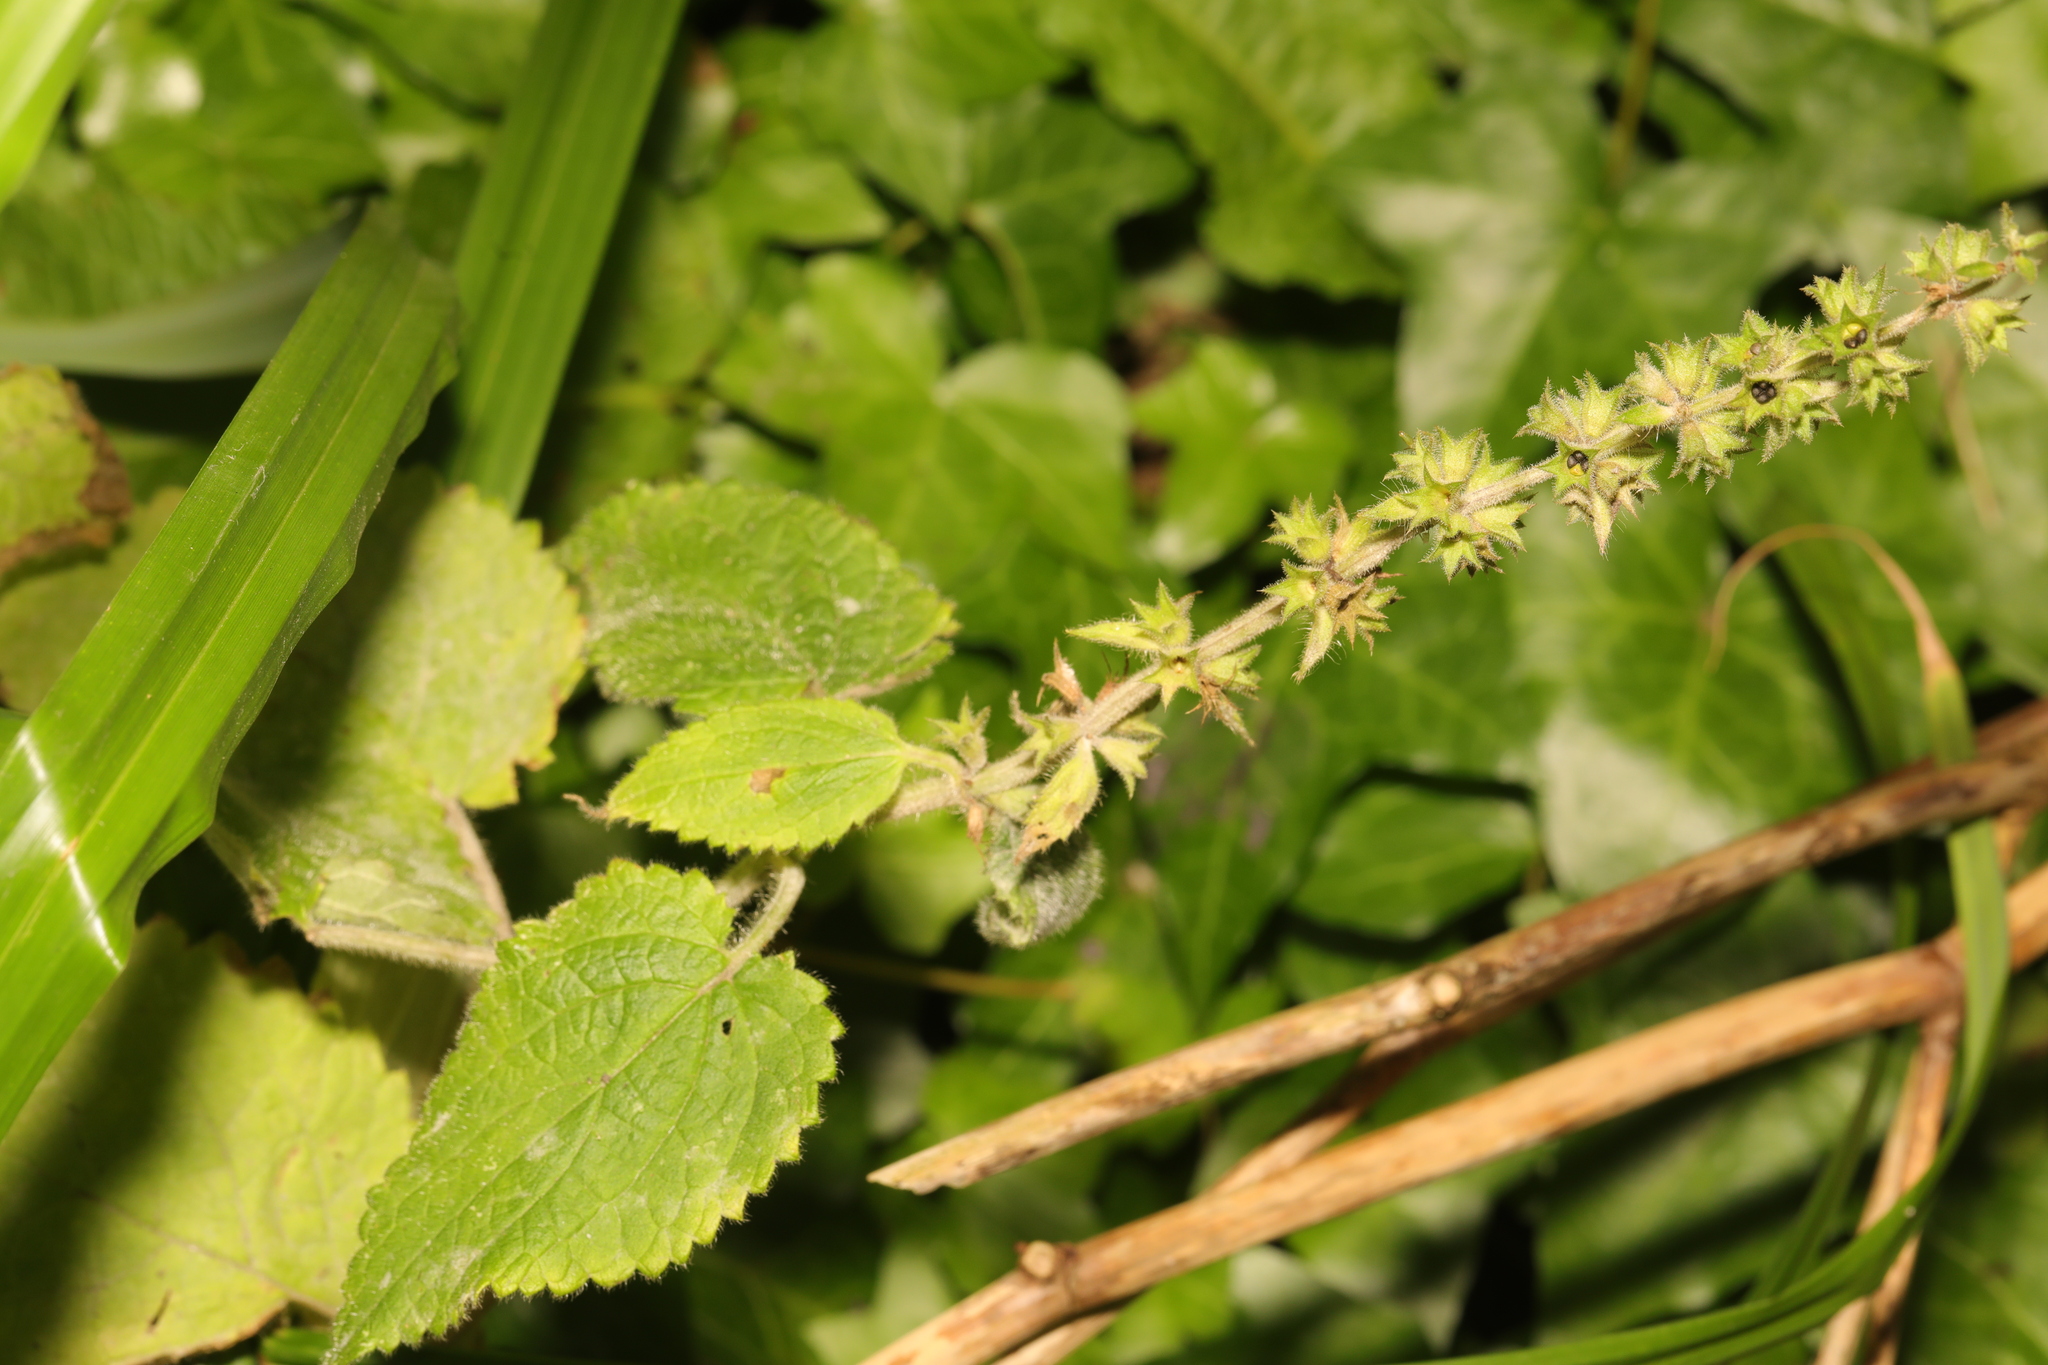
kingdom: Plantae
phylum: Tracheophyta
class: Magnoliopsida
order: Lamiales
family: Lamiaceae
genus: Stachys
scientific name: Stachys sylvatica
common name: Hedge woundwort
